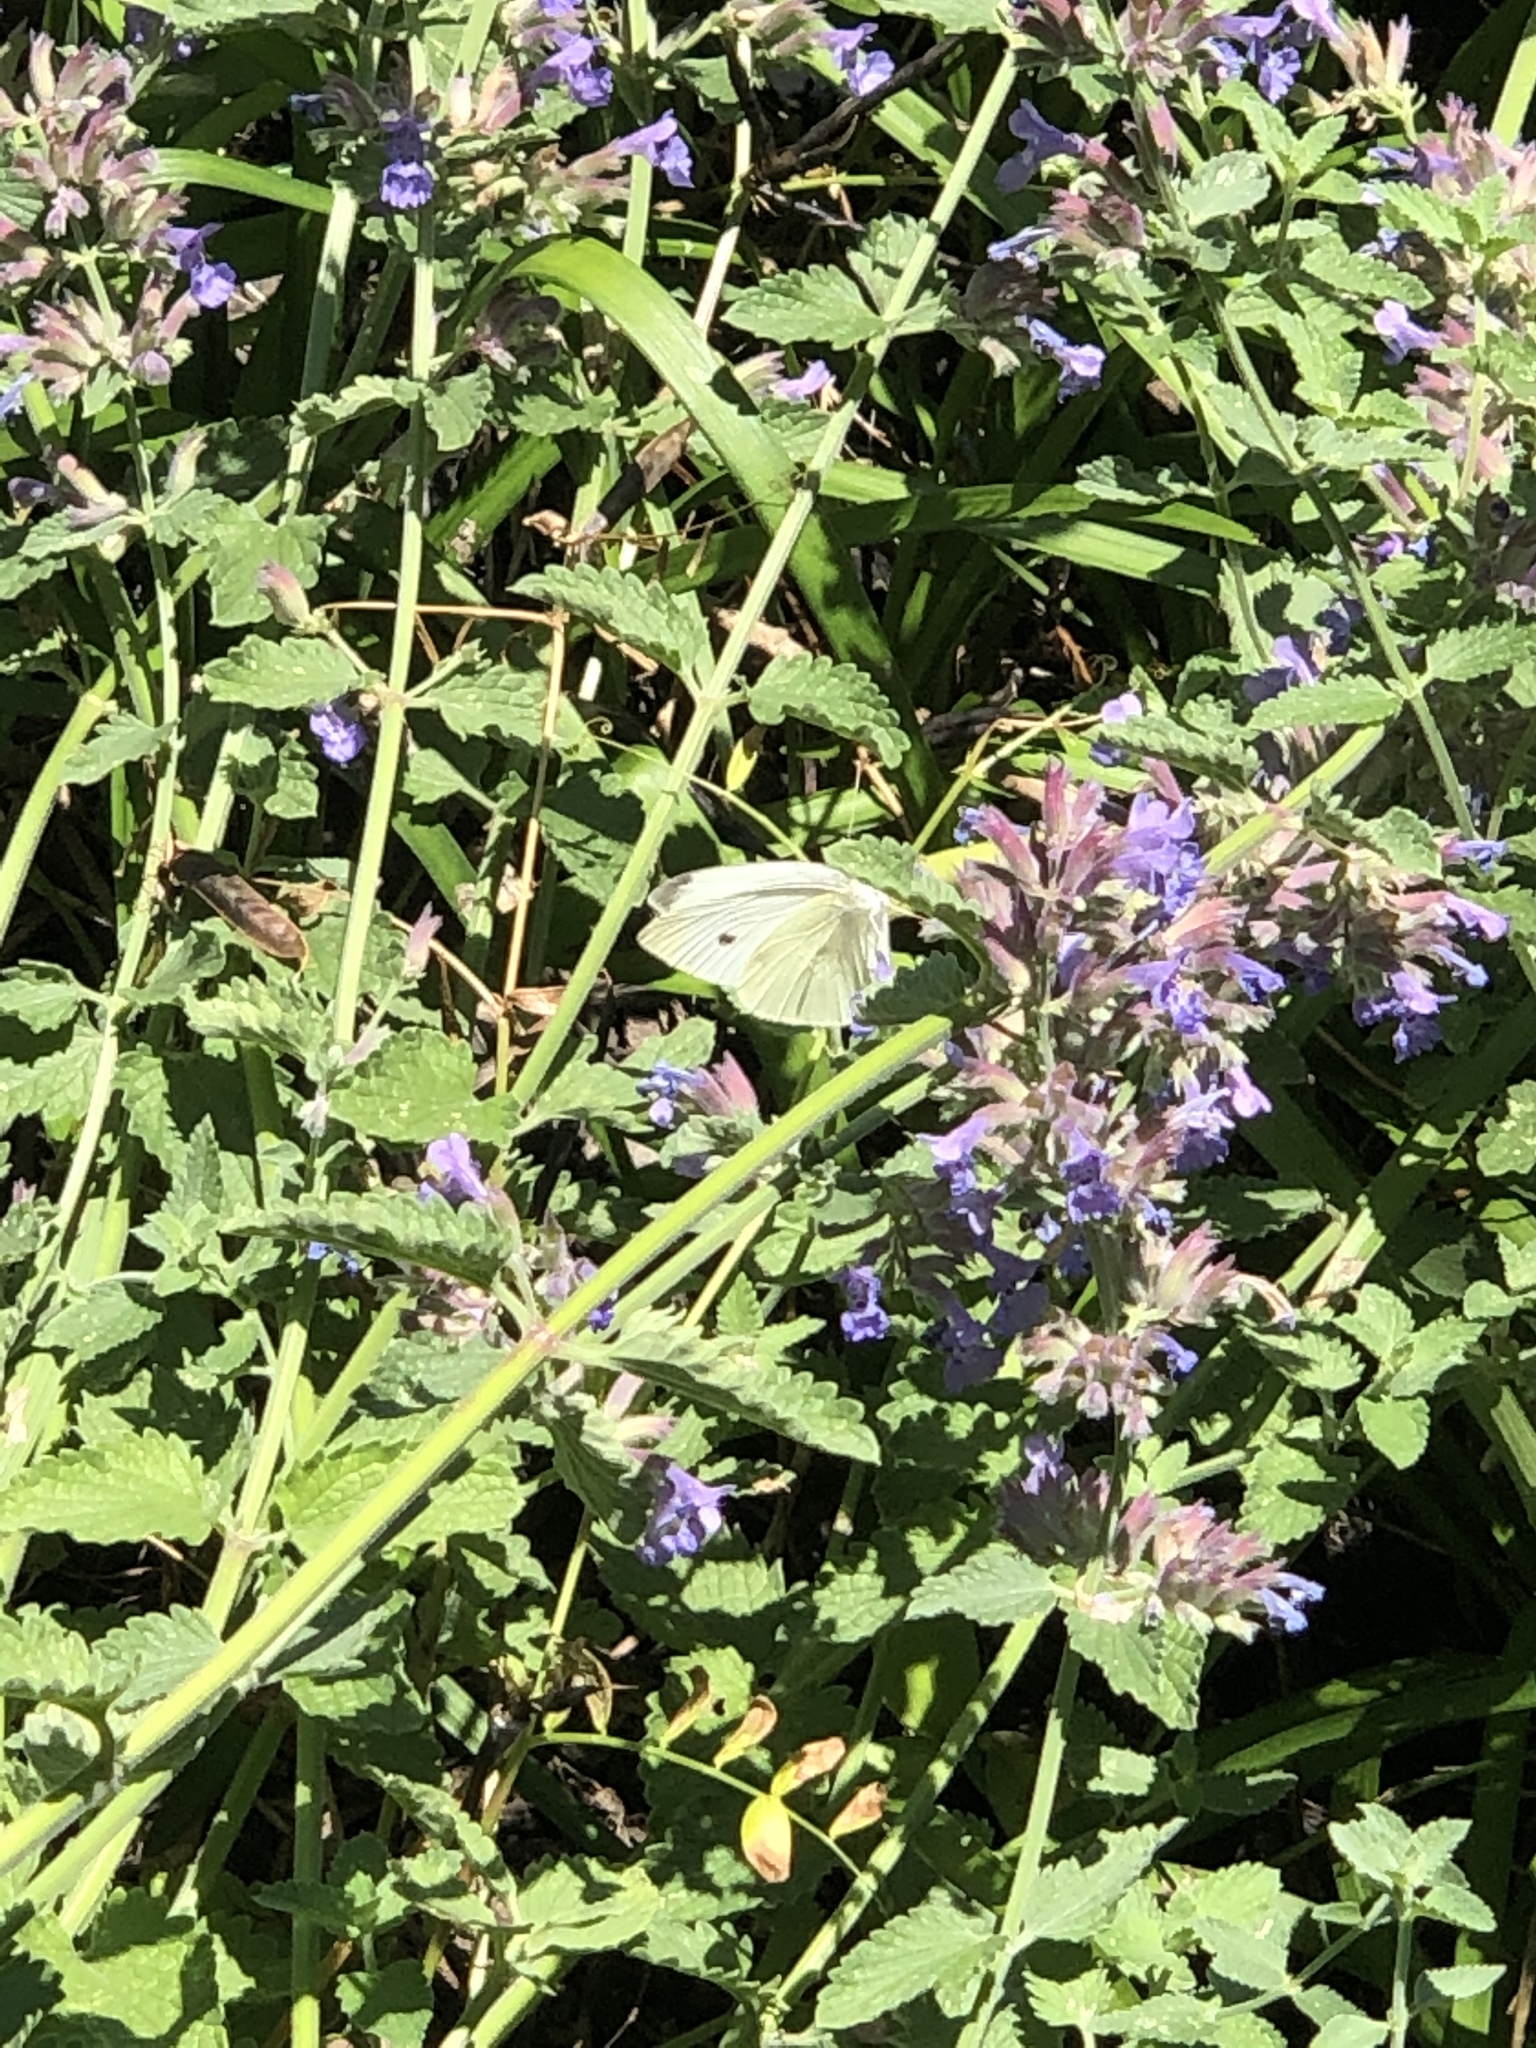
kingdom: Animalia
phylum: Arthropoda
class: Insecta
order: Lepidoptera
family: Pieridae
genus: Pieris
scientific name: Pieris rapae
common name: Small white
